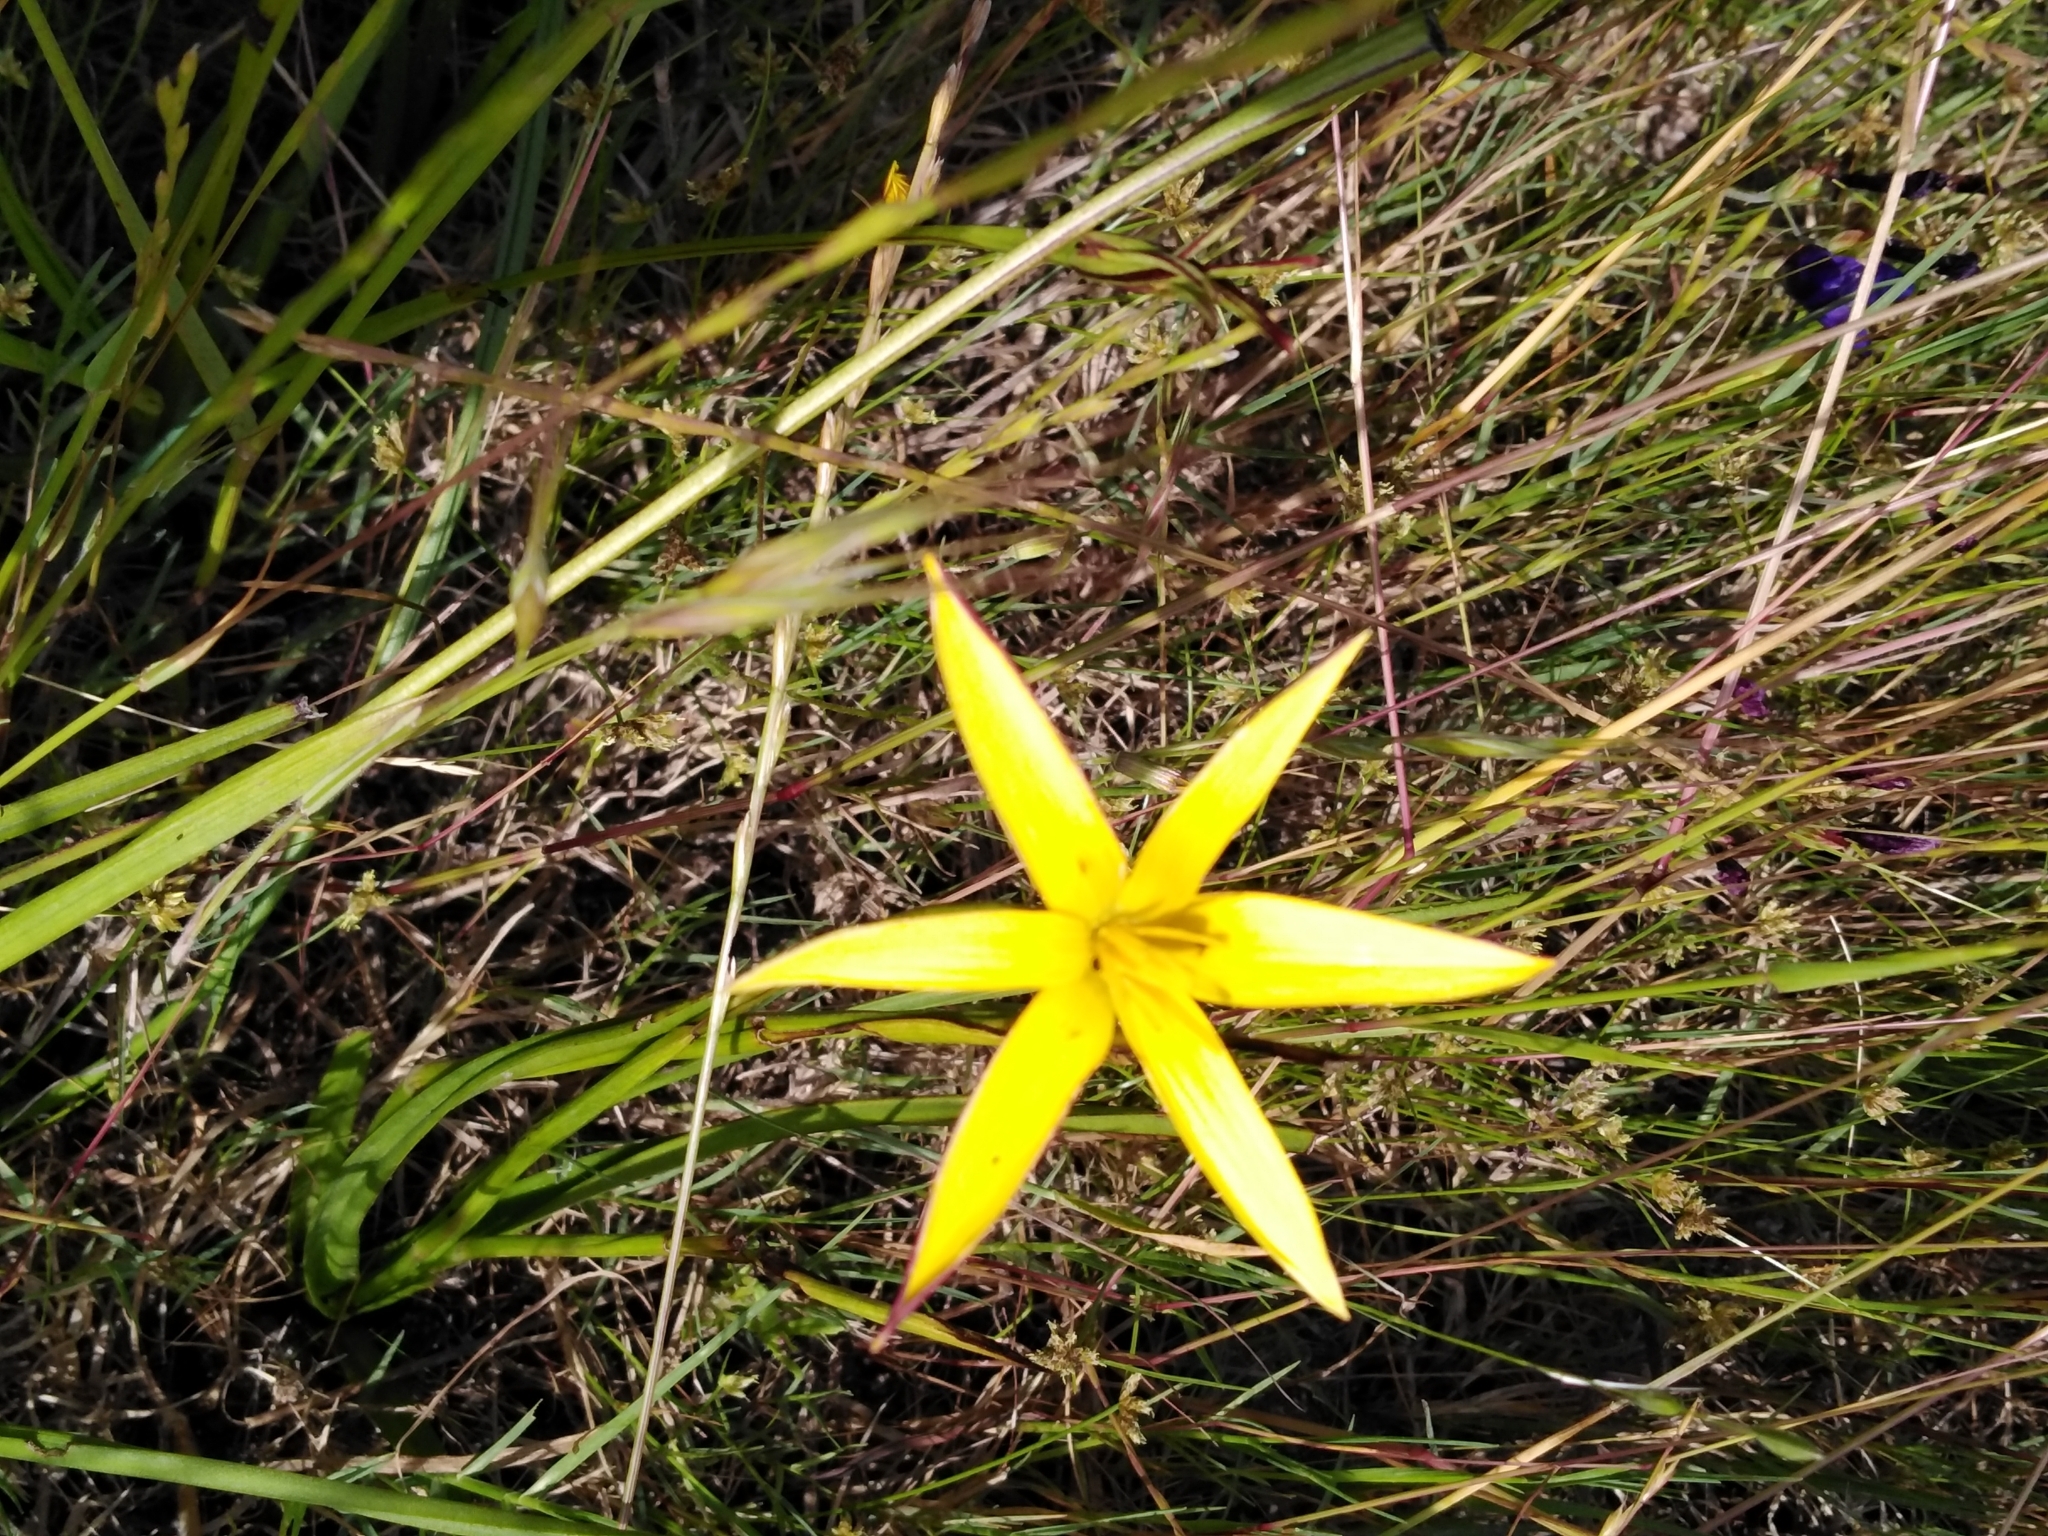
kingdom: Plantae
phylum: Tracheophyta
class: Liliopsida
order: Asparagales
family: Hypoxidaceae
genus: Pauridia
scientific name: Pauridia capensis
